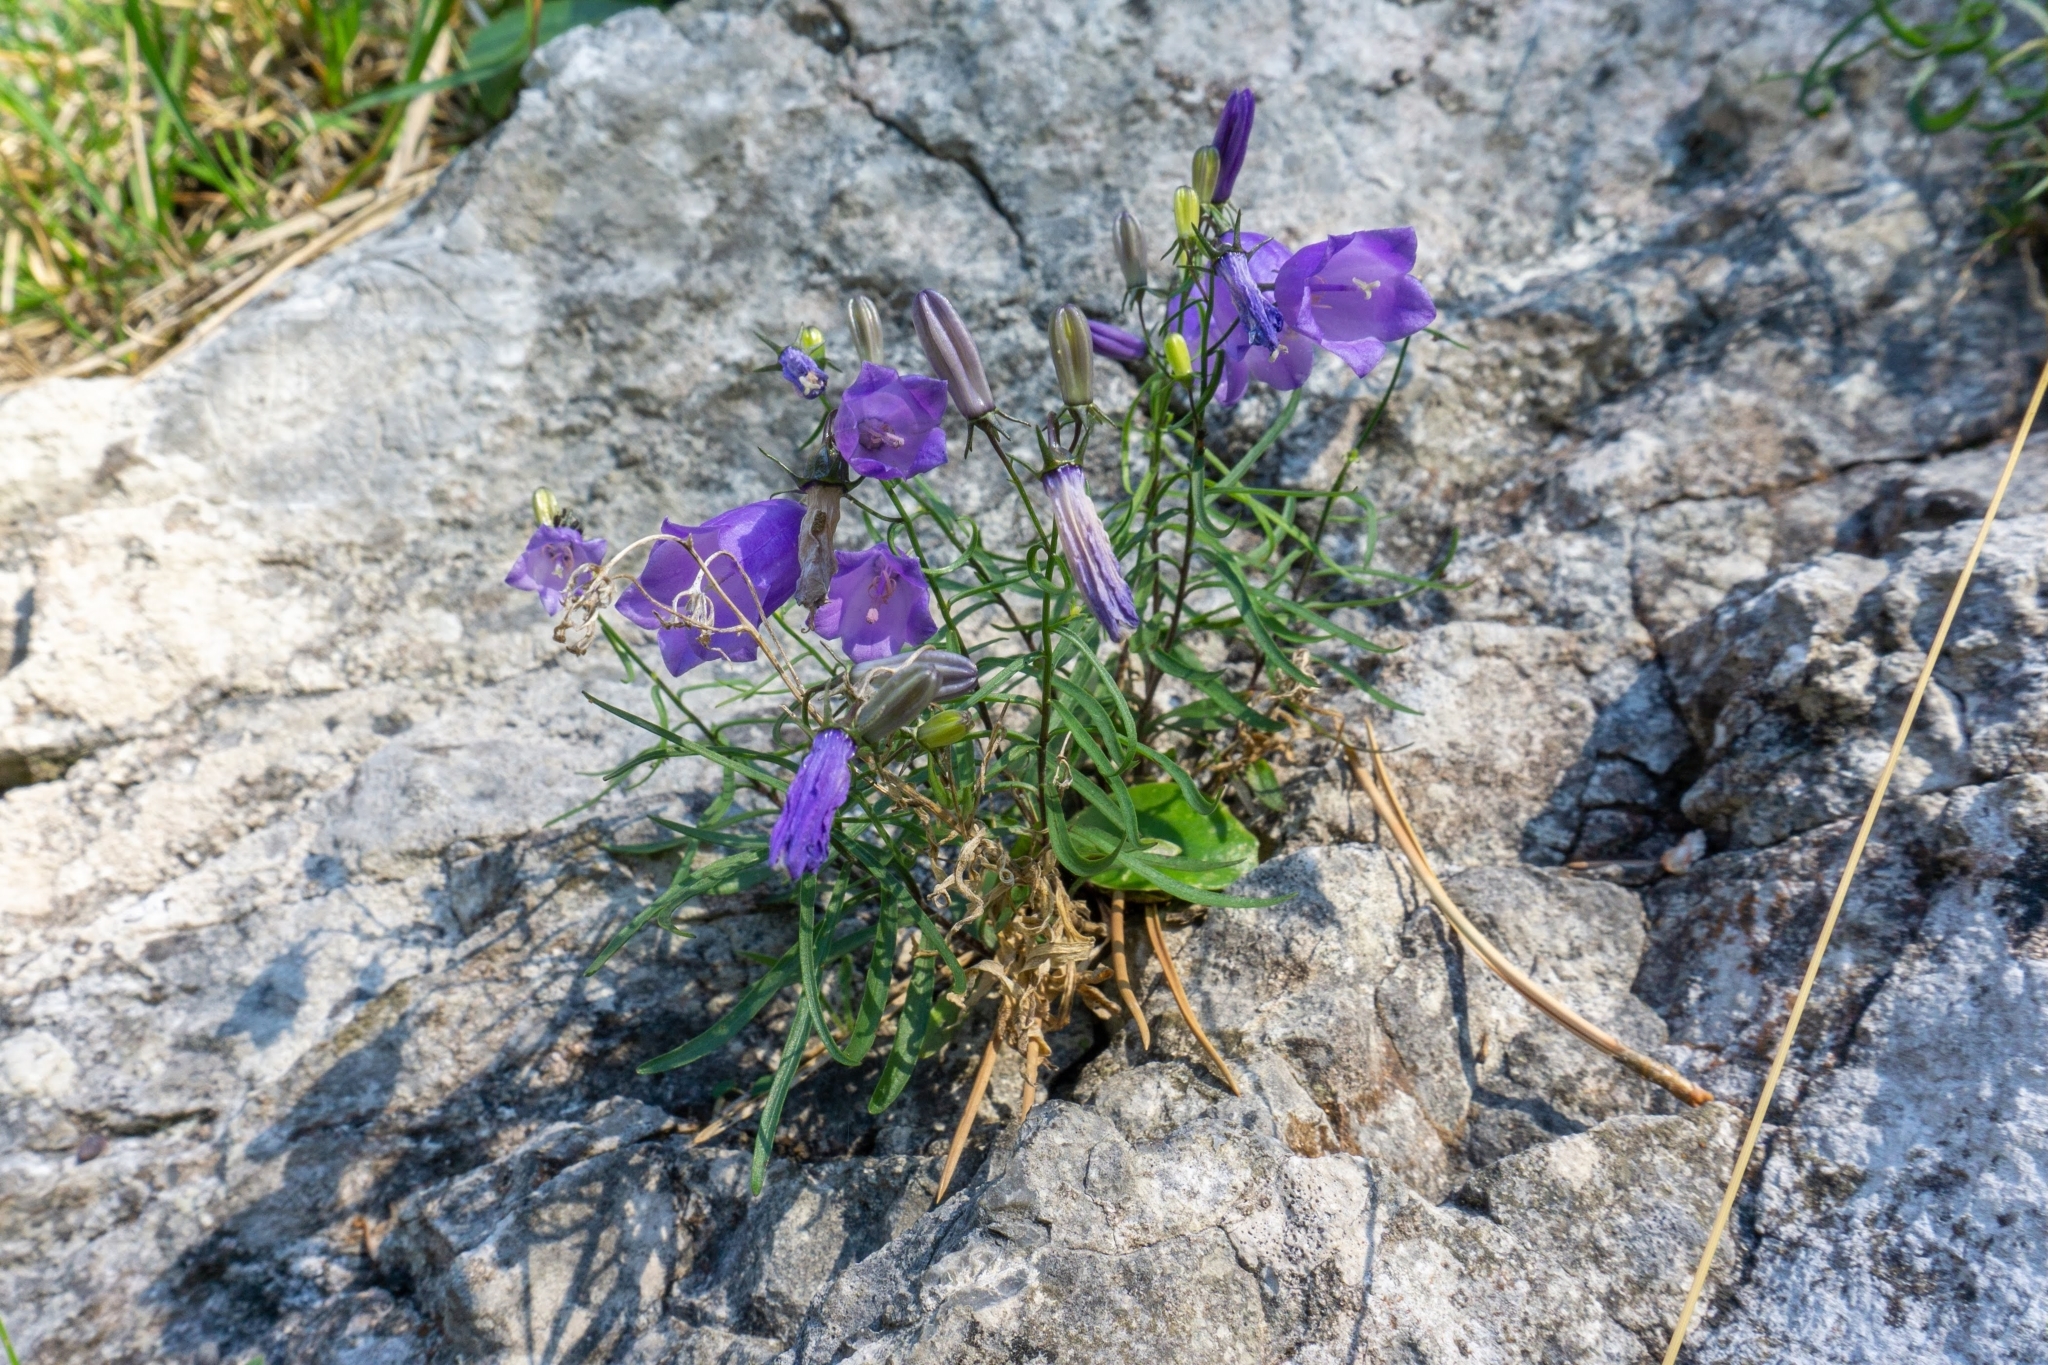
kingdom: Plantae
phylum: Tracheophyta
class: Magnoliopsida
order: Asterales
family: Campanulaceae
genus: Campanula
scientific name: Campanula praesignis
